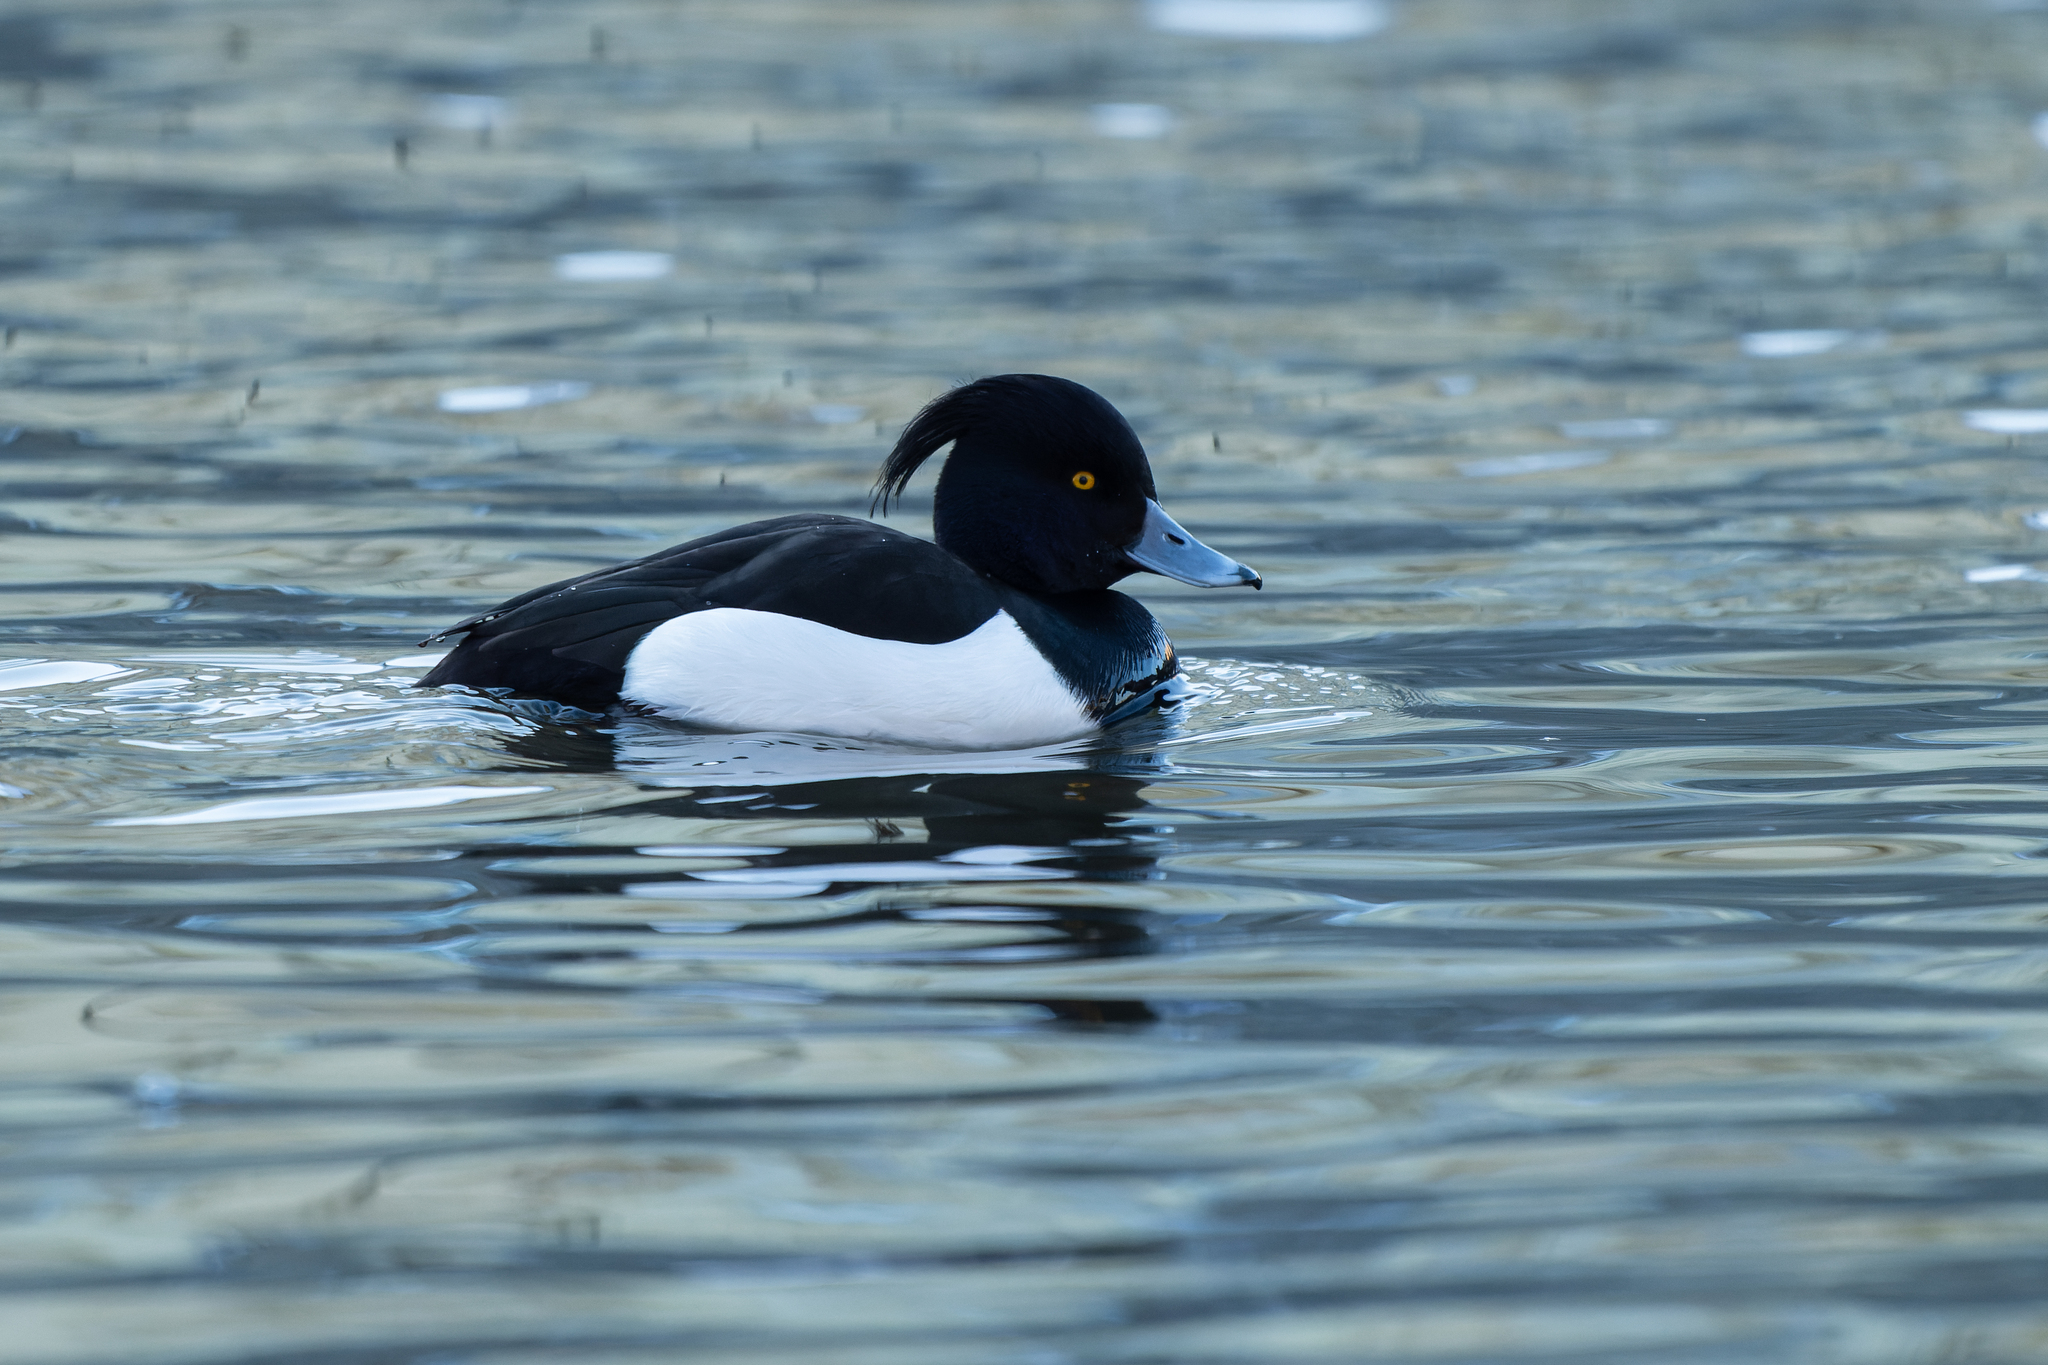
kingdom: Animalia
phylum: Chordata
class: Aves
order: Anseriformes
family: Anatidae
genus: Aythya
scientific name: Aythya fuligula
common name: Tufted duck
